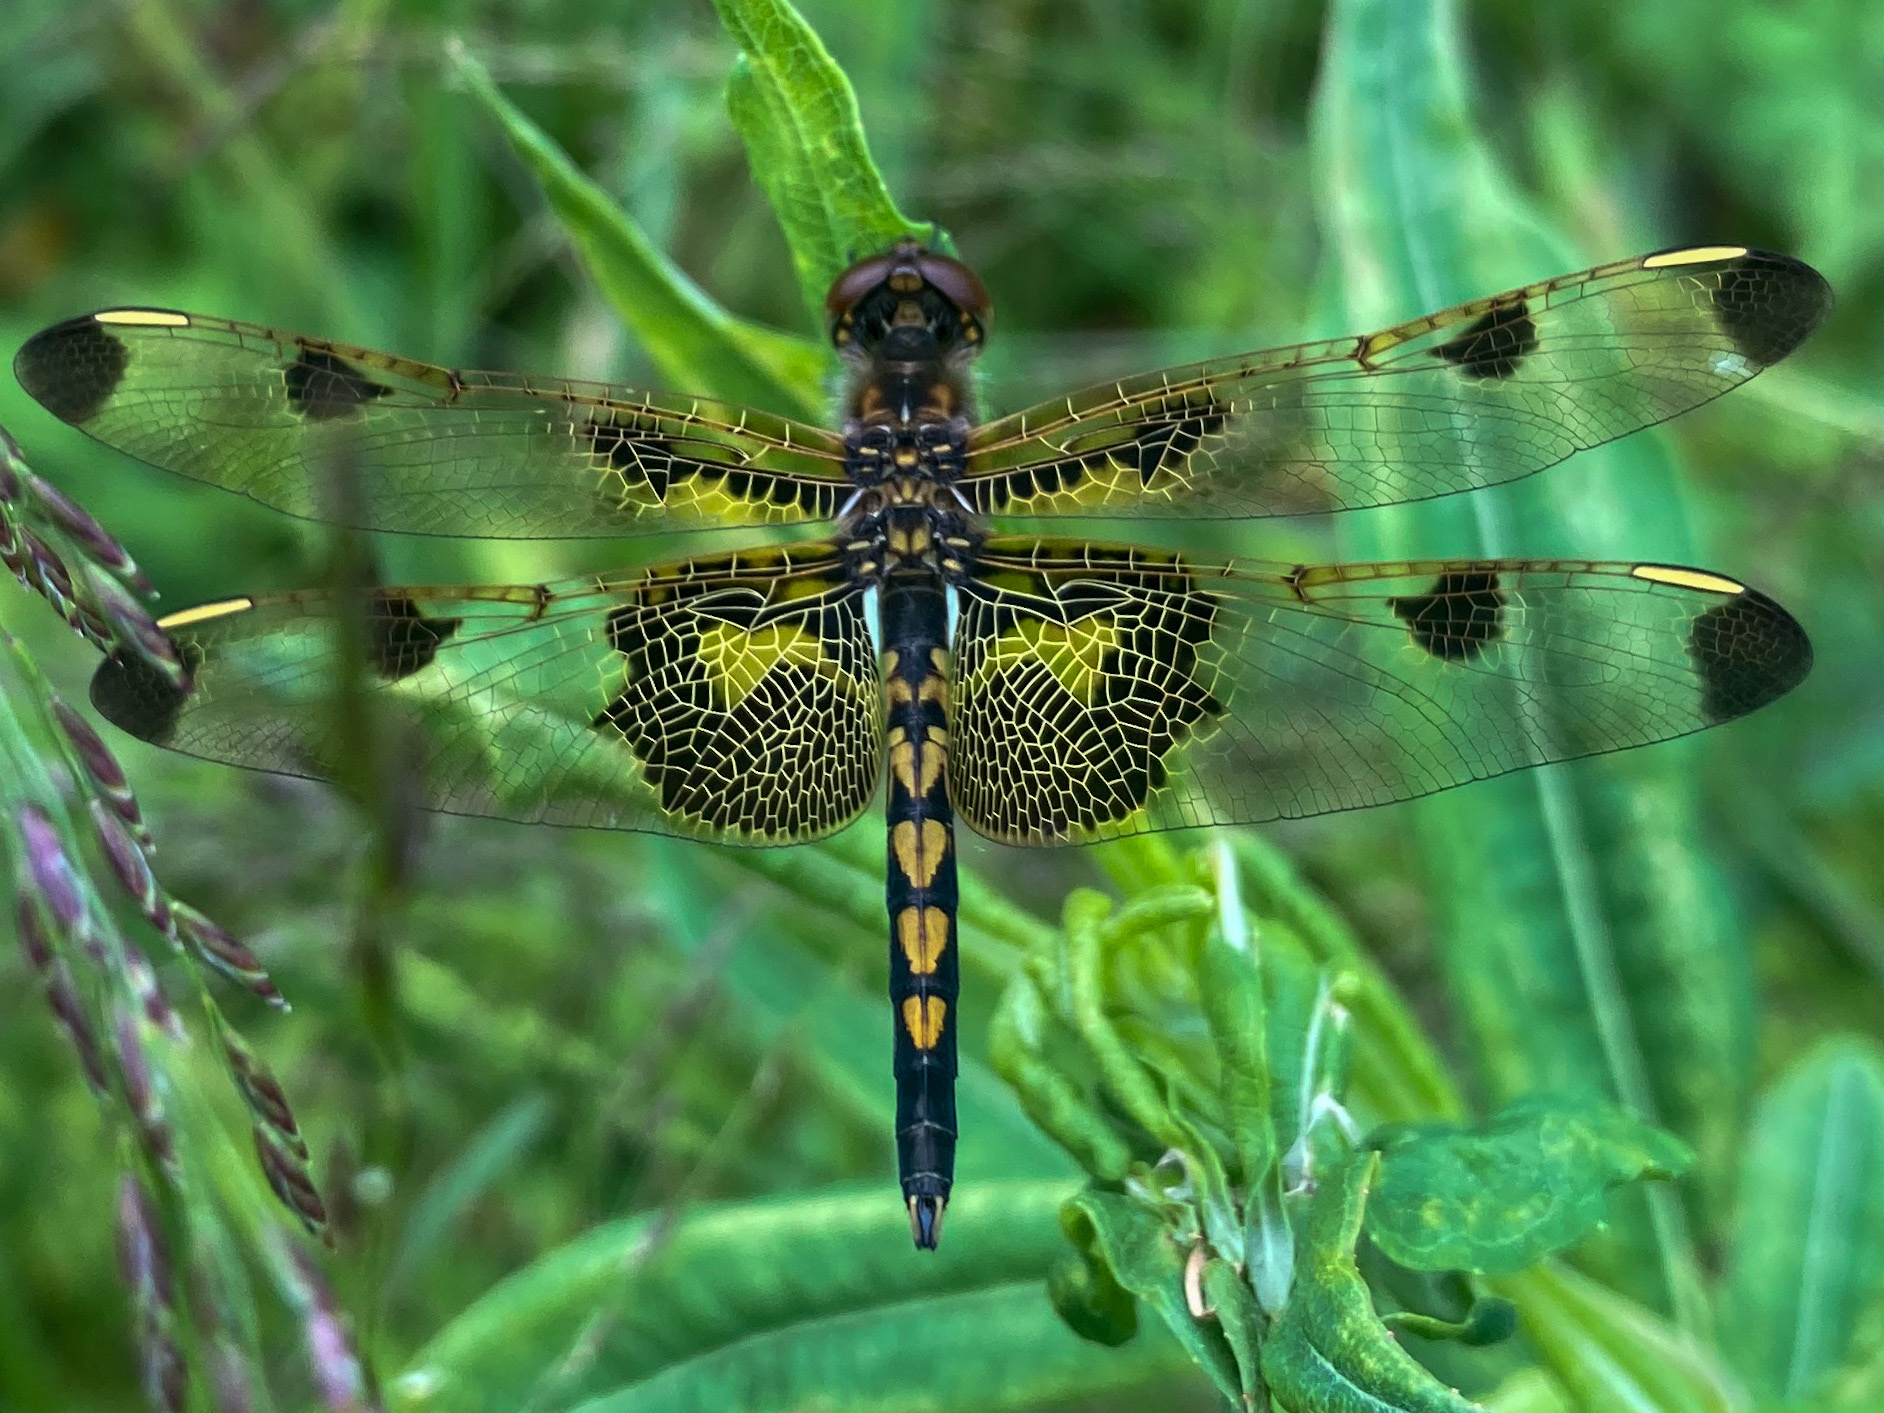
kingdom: Animalia
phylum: Arthropoda
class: Insecta
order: Odonata
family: Libellulidae
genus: Celithemis
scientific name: Celithemis elisa
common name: Calico pennant
